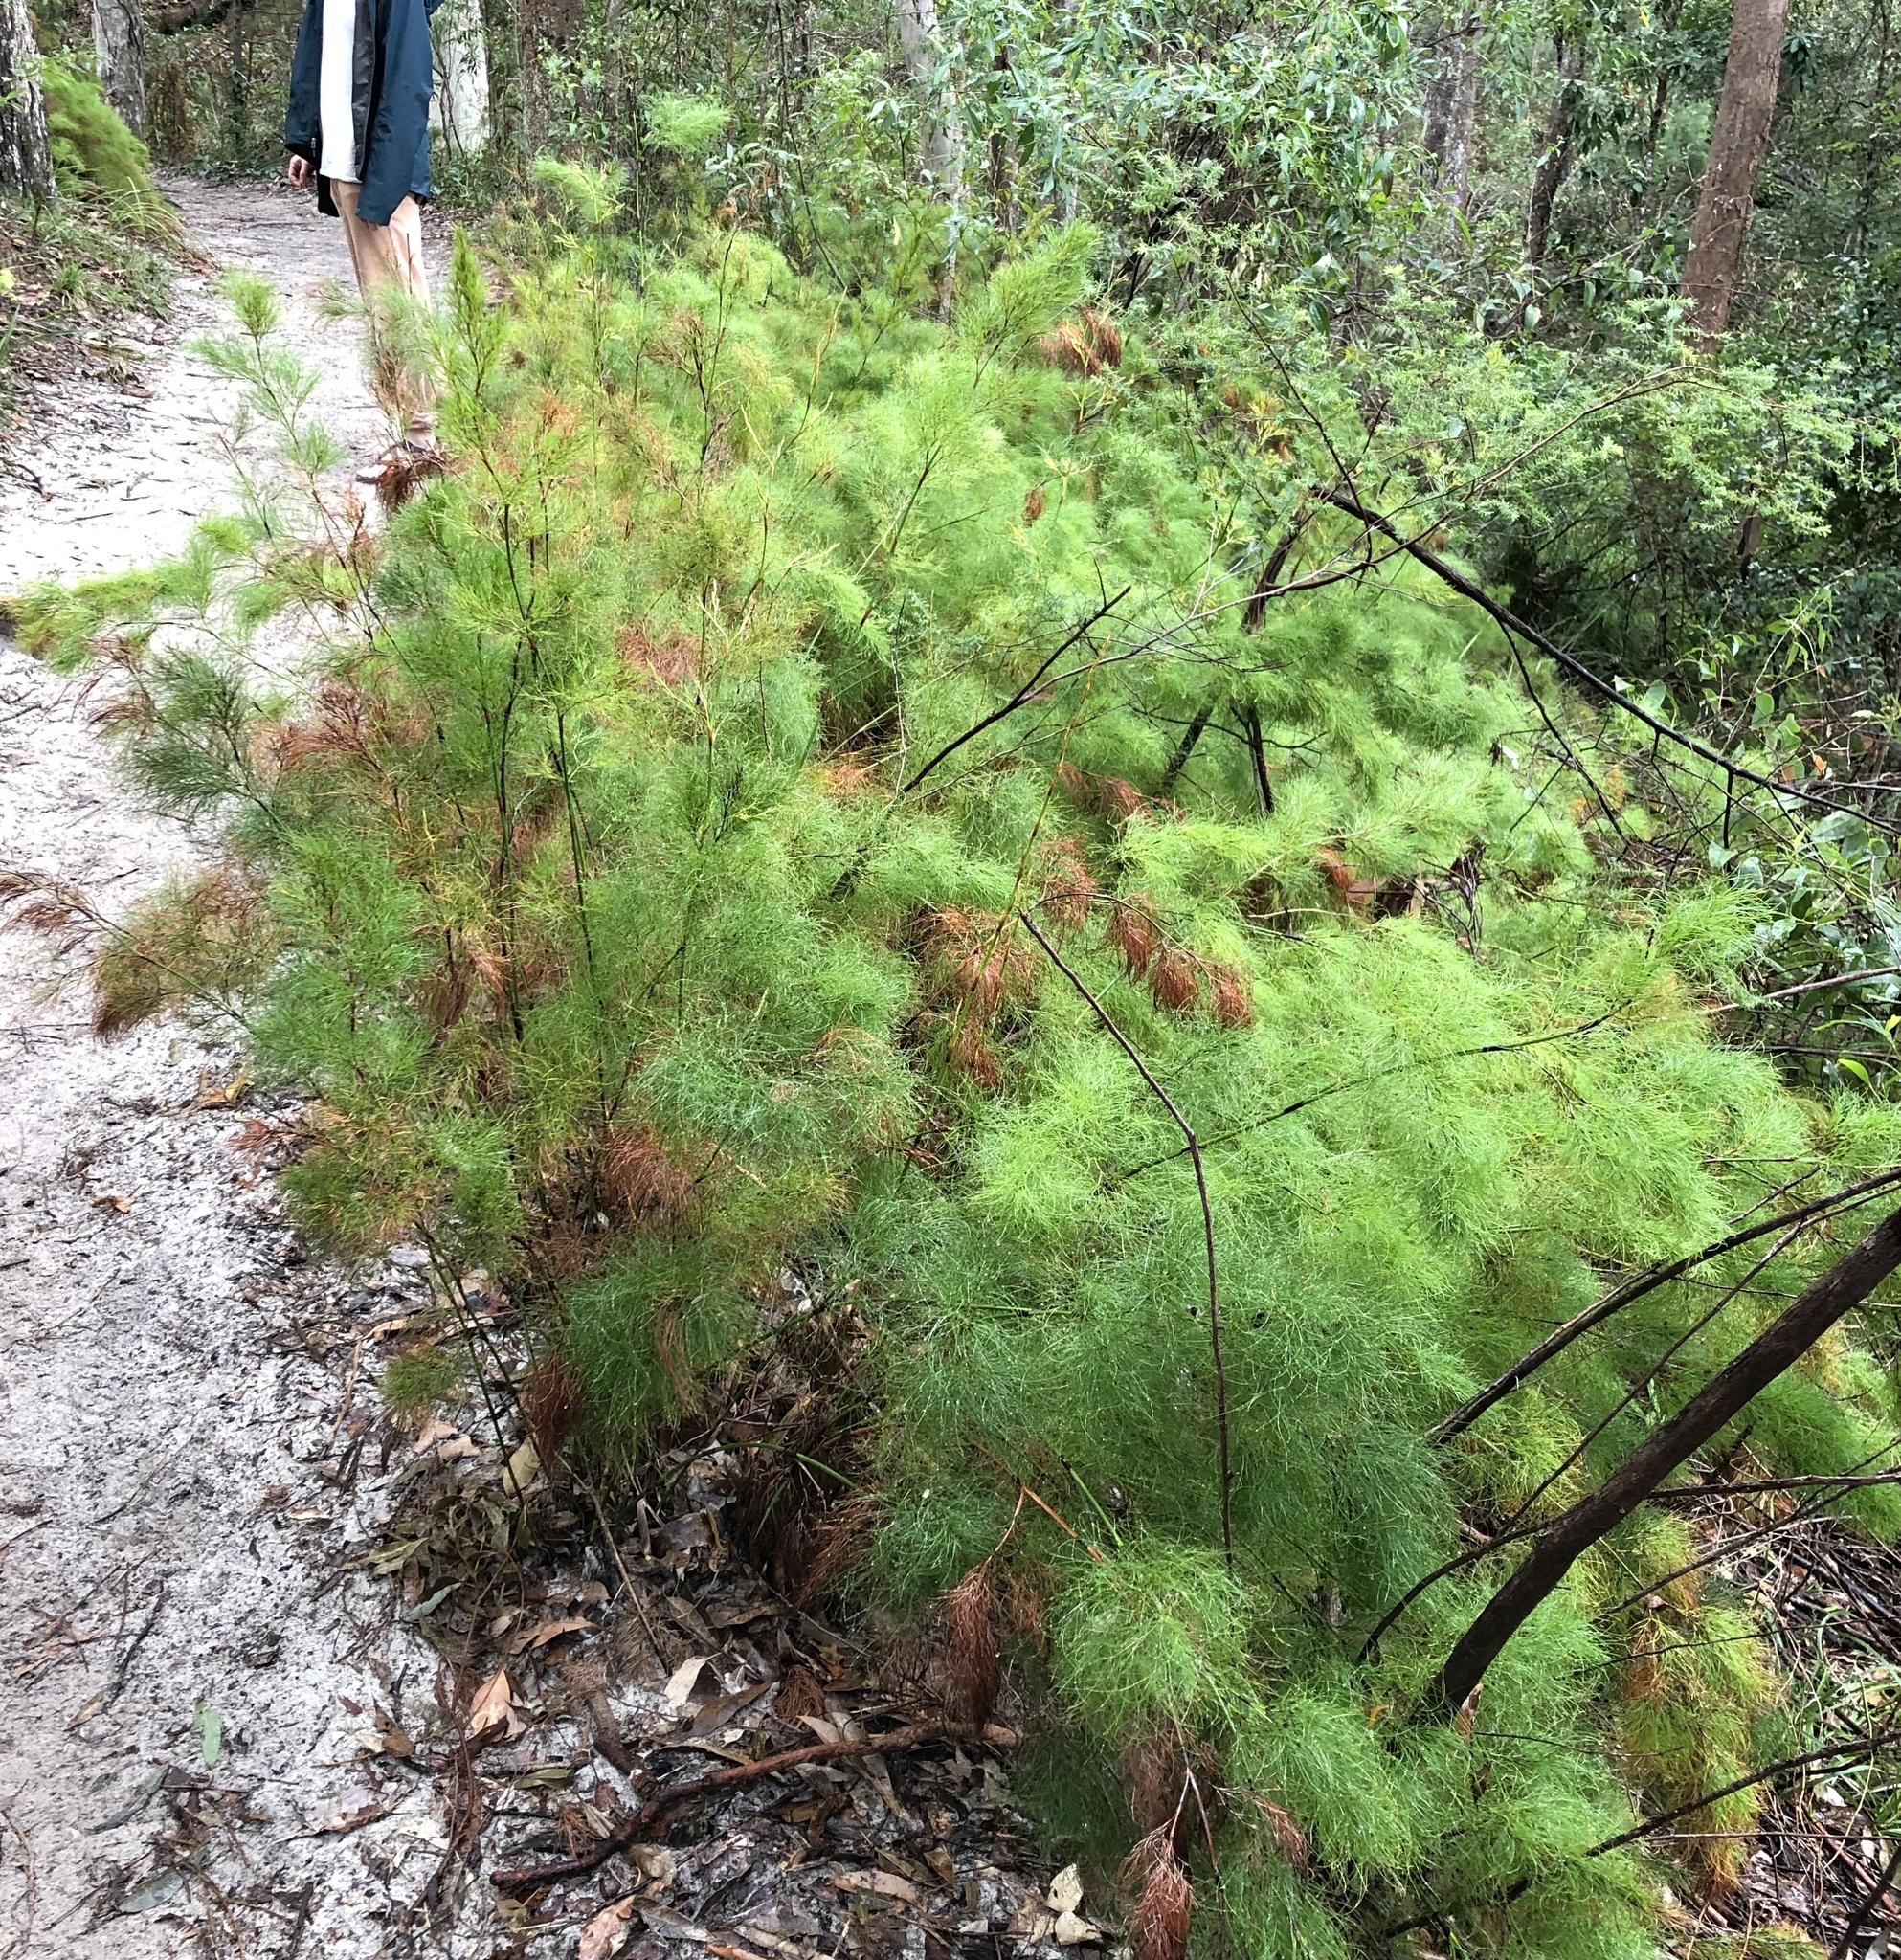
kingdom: Plantae
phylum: Tracheophyta
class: Liliopsida
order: Poales
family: Cyperaceae
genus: Caustis
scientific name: Caustis blakei
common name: Foxtail-fern
